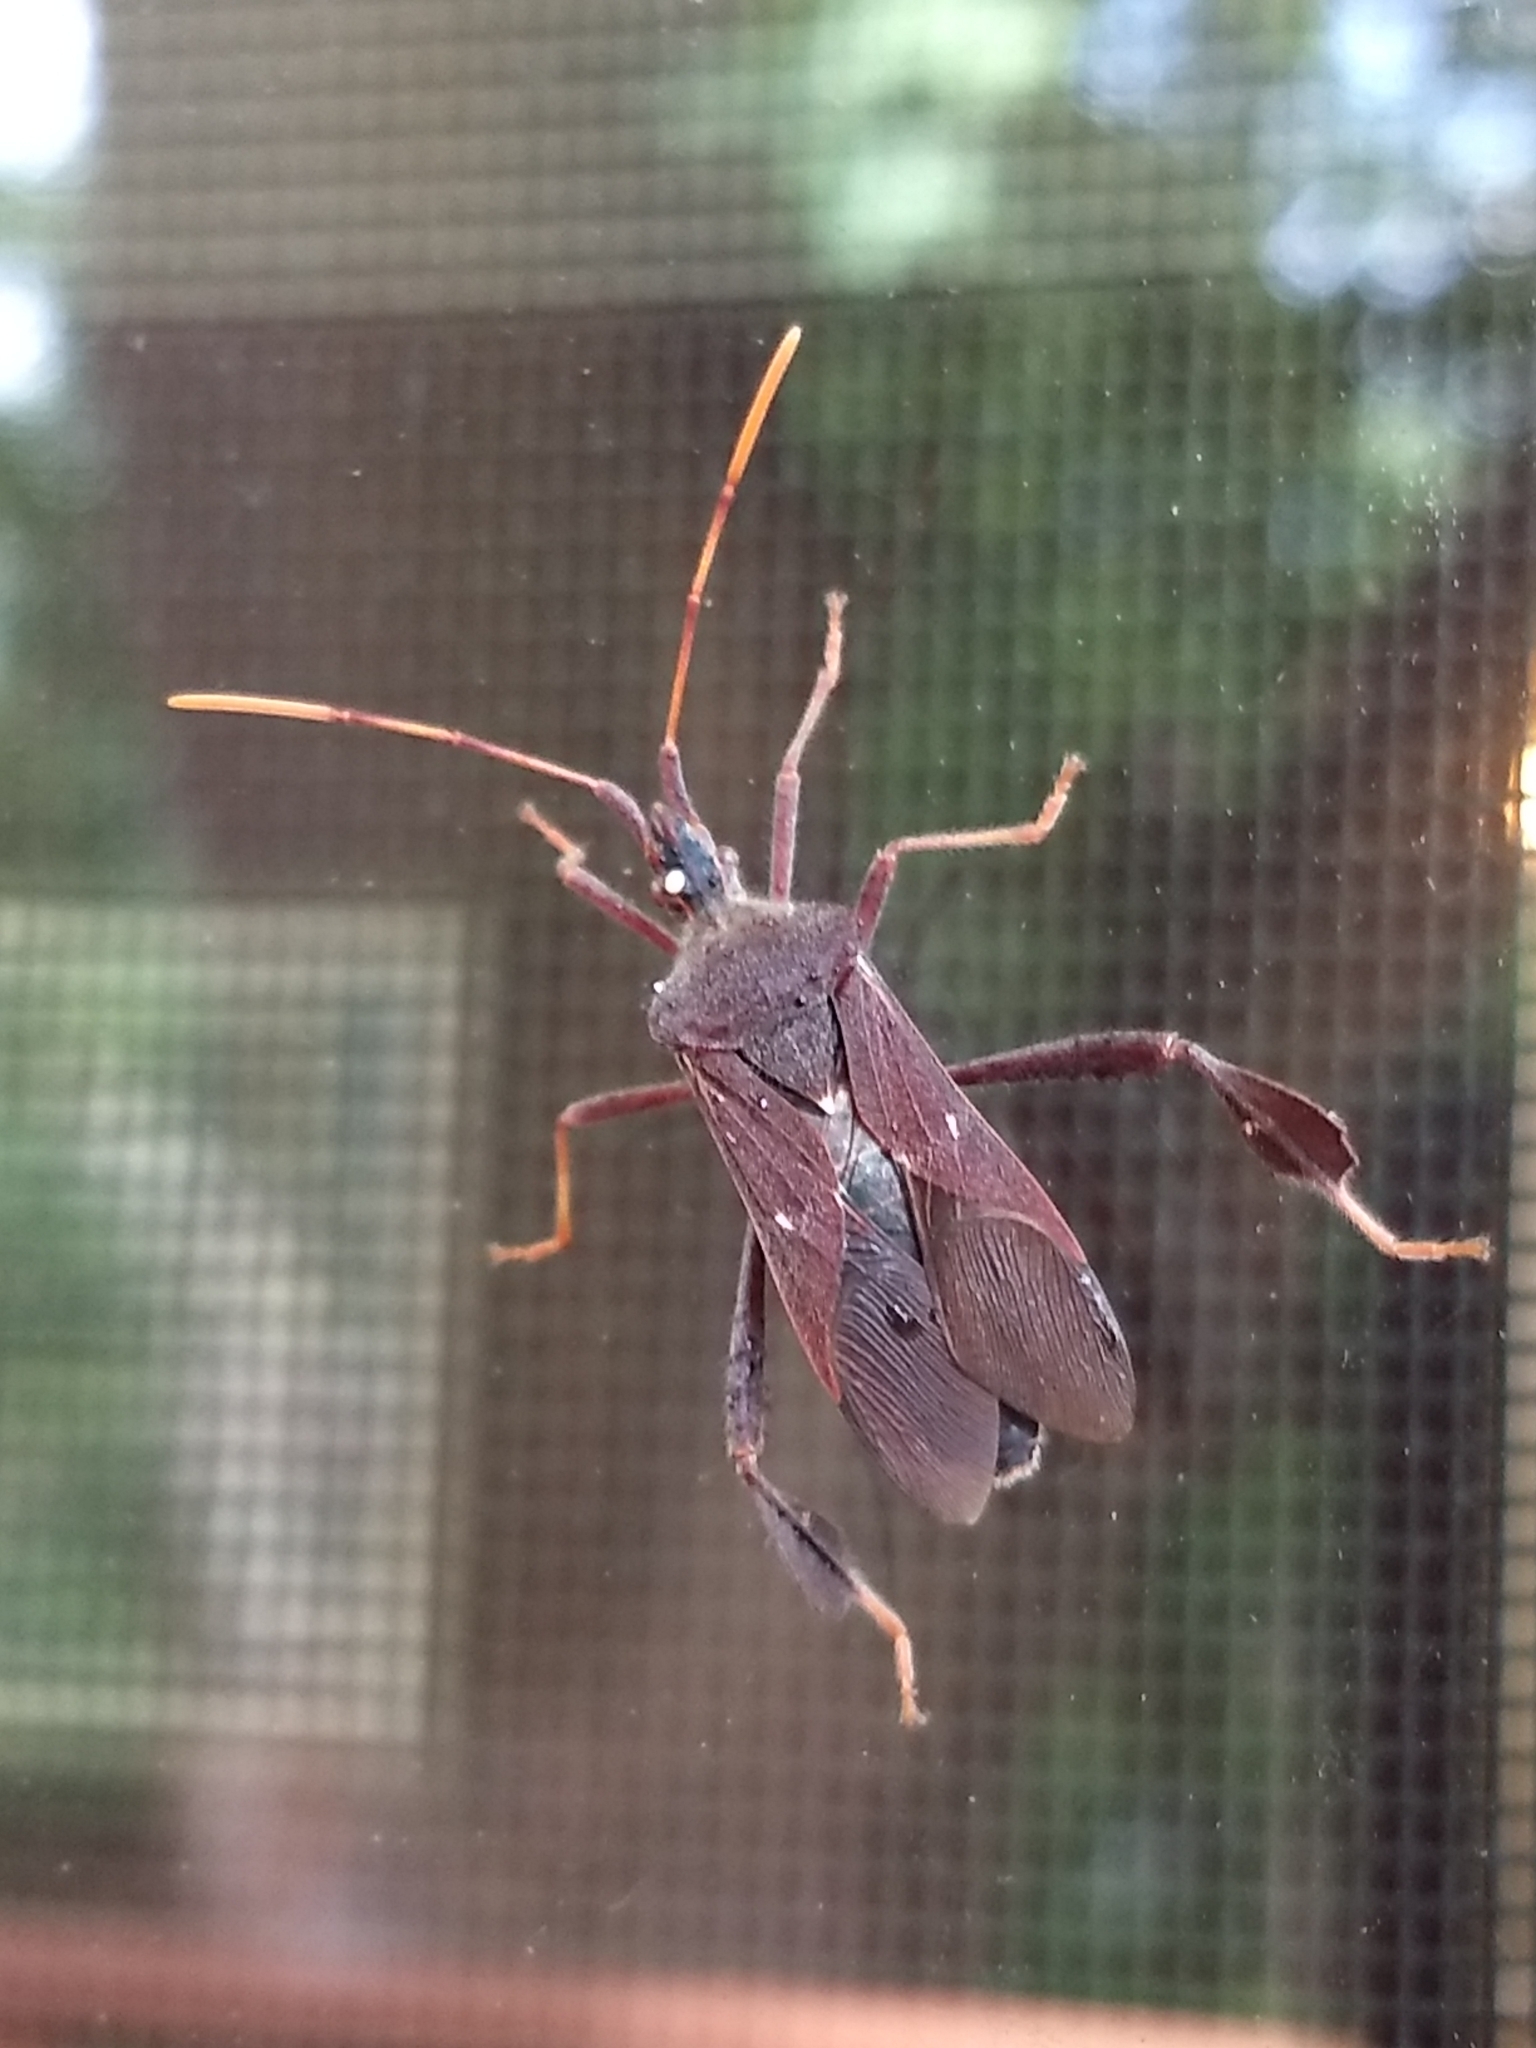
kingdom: Animalia
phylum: Arthropoda
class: Insecta
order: Hemiptera
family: Coreidae
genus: Leptoglossus
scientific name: Leptoglossus oppositus
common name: Northern leaf-footed bug
